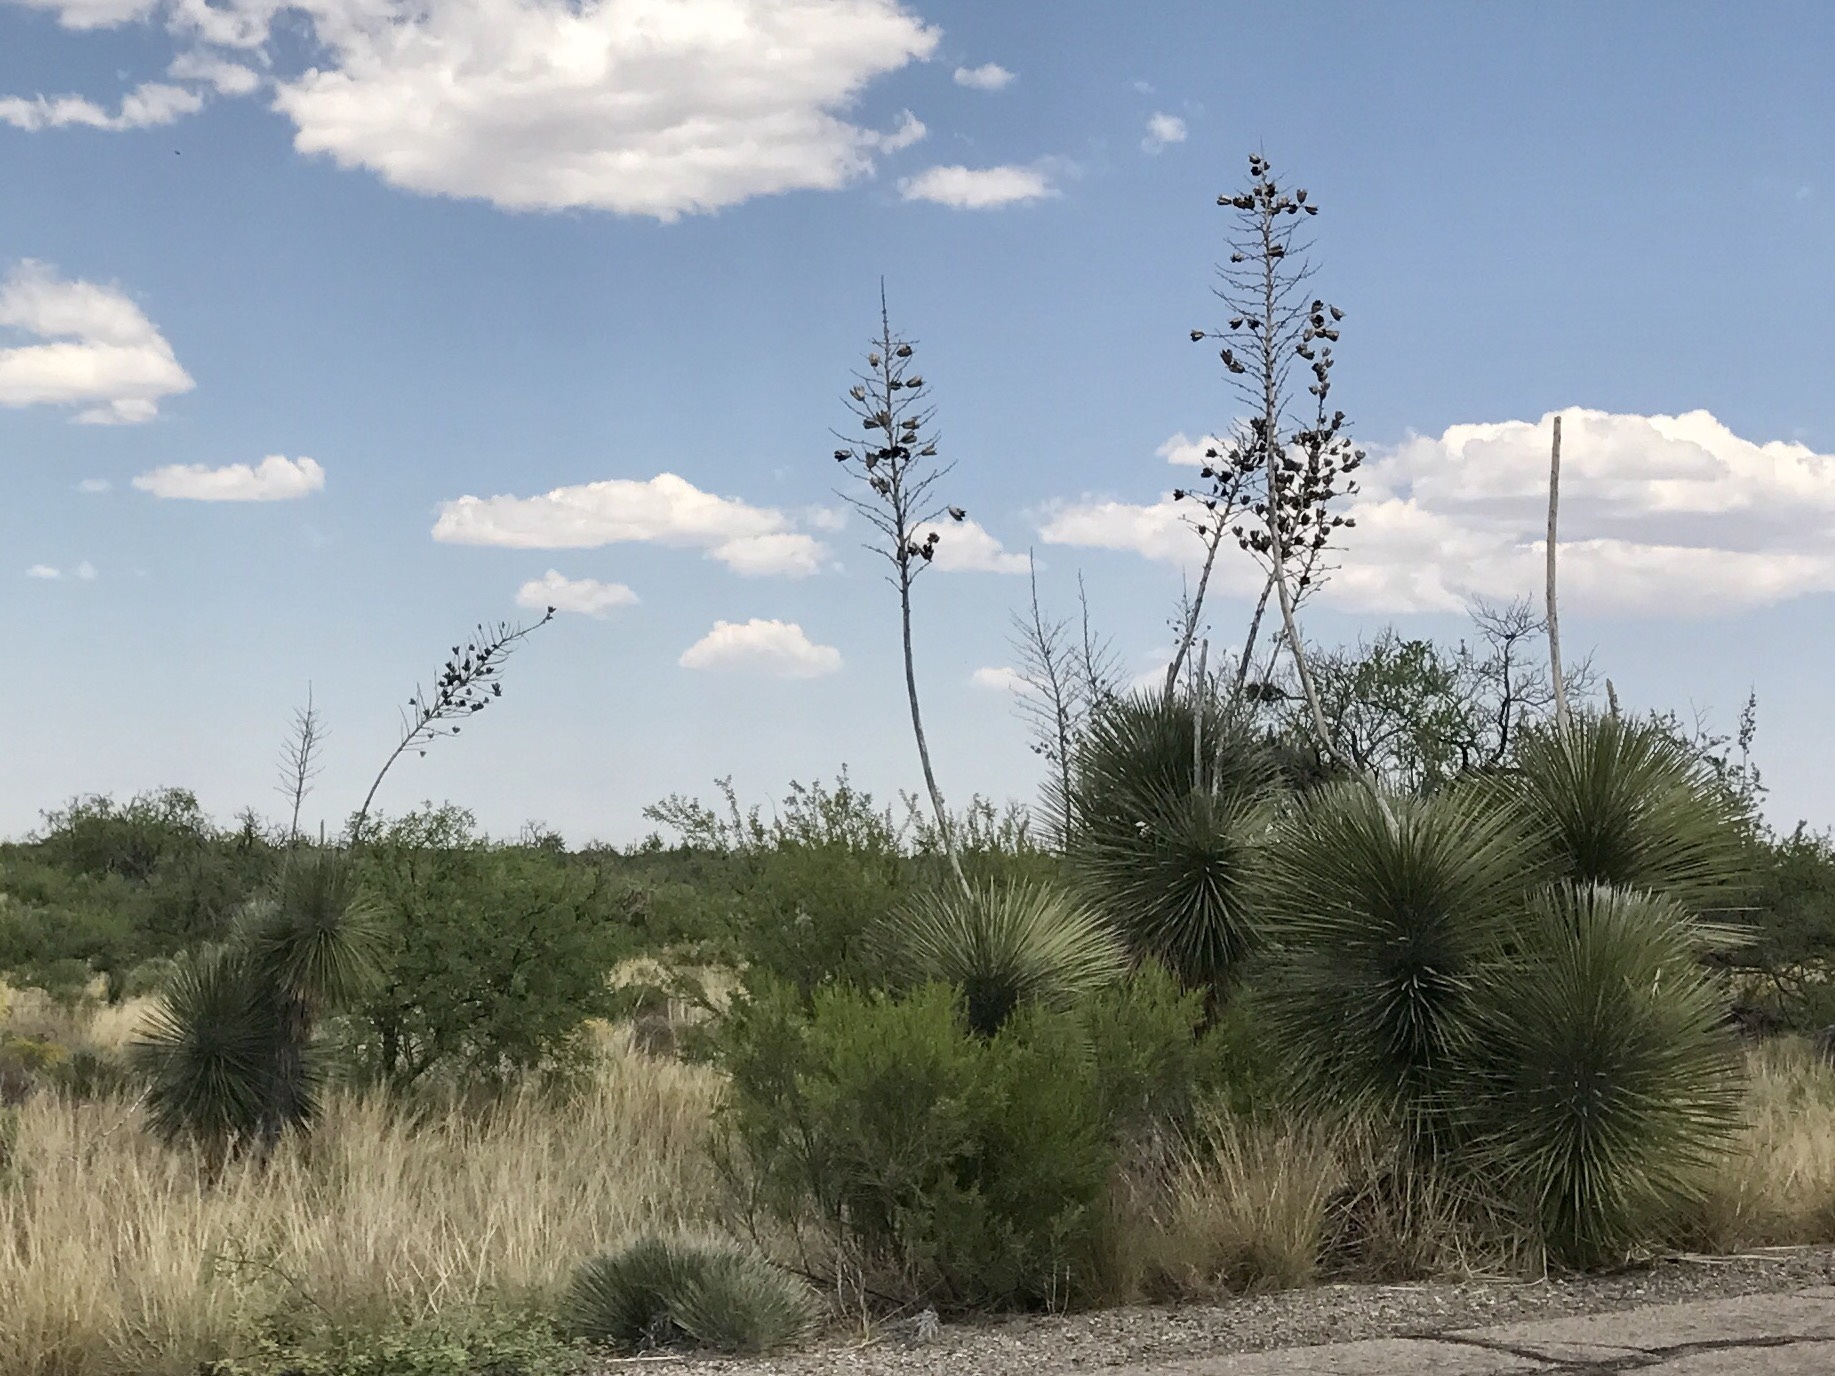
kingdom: Plantae
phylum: Tracheophyta
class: Liliopsida
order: Asparagales
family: Asparagaceae
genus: Yucca
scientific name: Yucca elata
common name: Palmella
